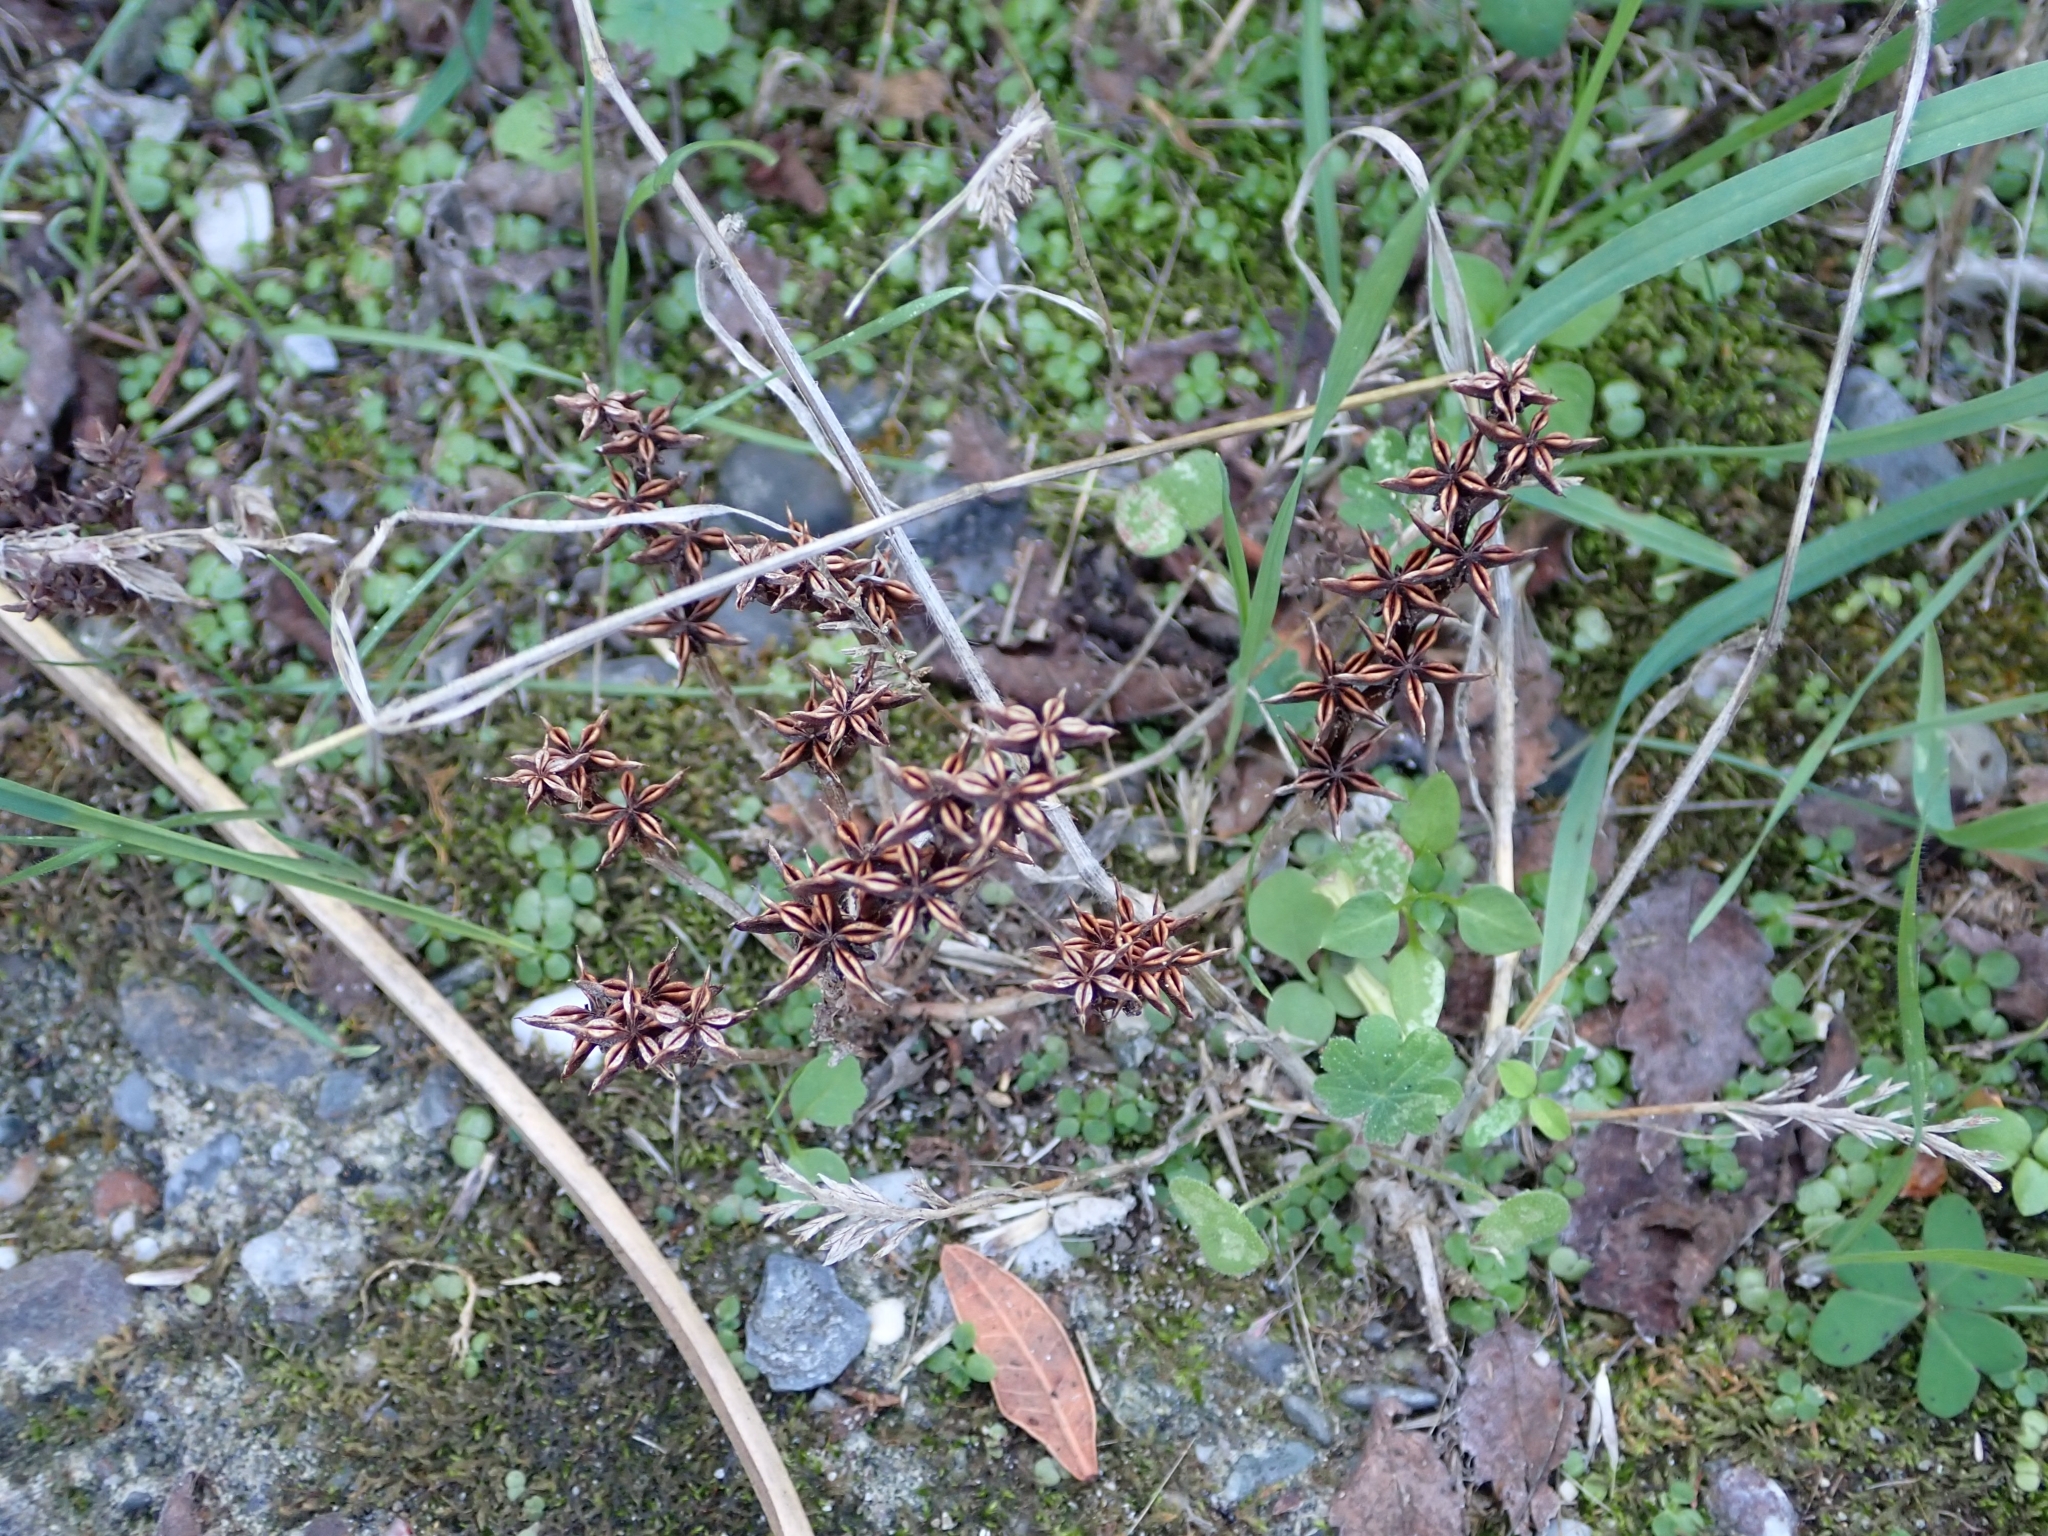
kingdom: Plantae
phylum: Tracheophyta
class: Magnoliopsida
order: Saxifragales
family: Crassulaceae
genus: Phedimus
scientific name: Phedimus stellatus
